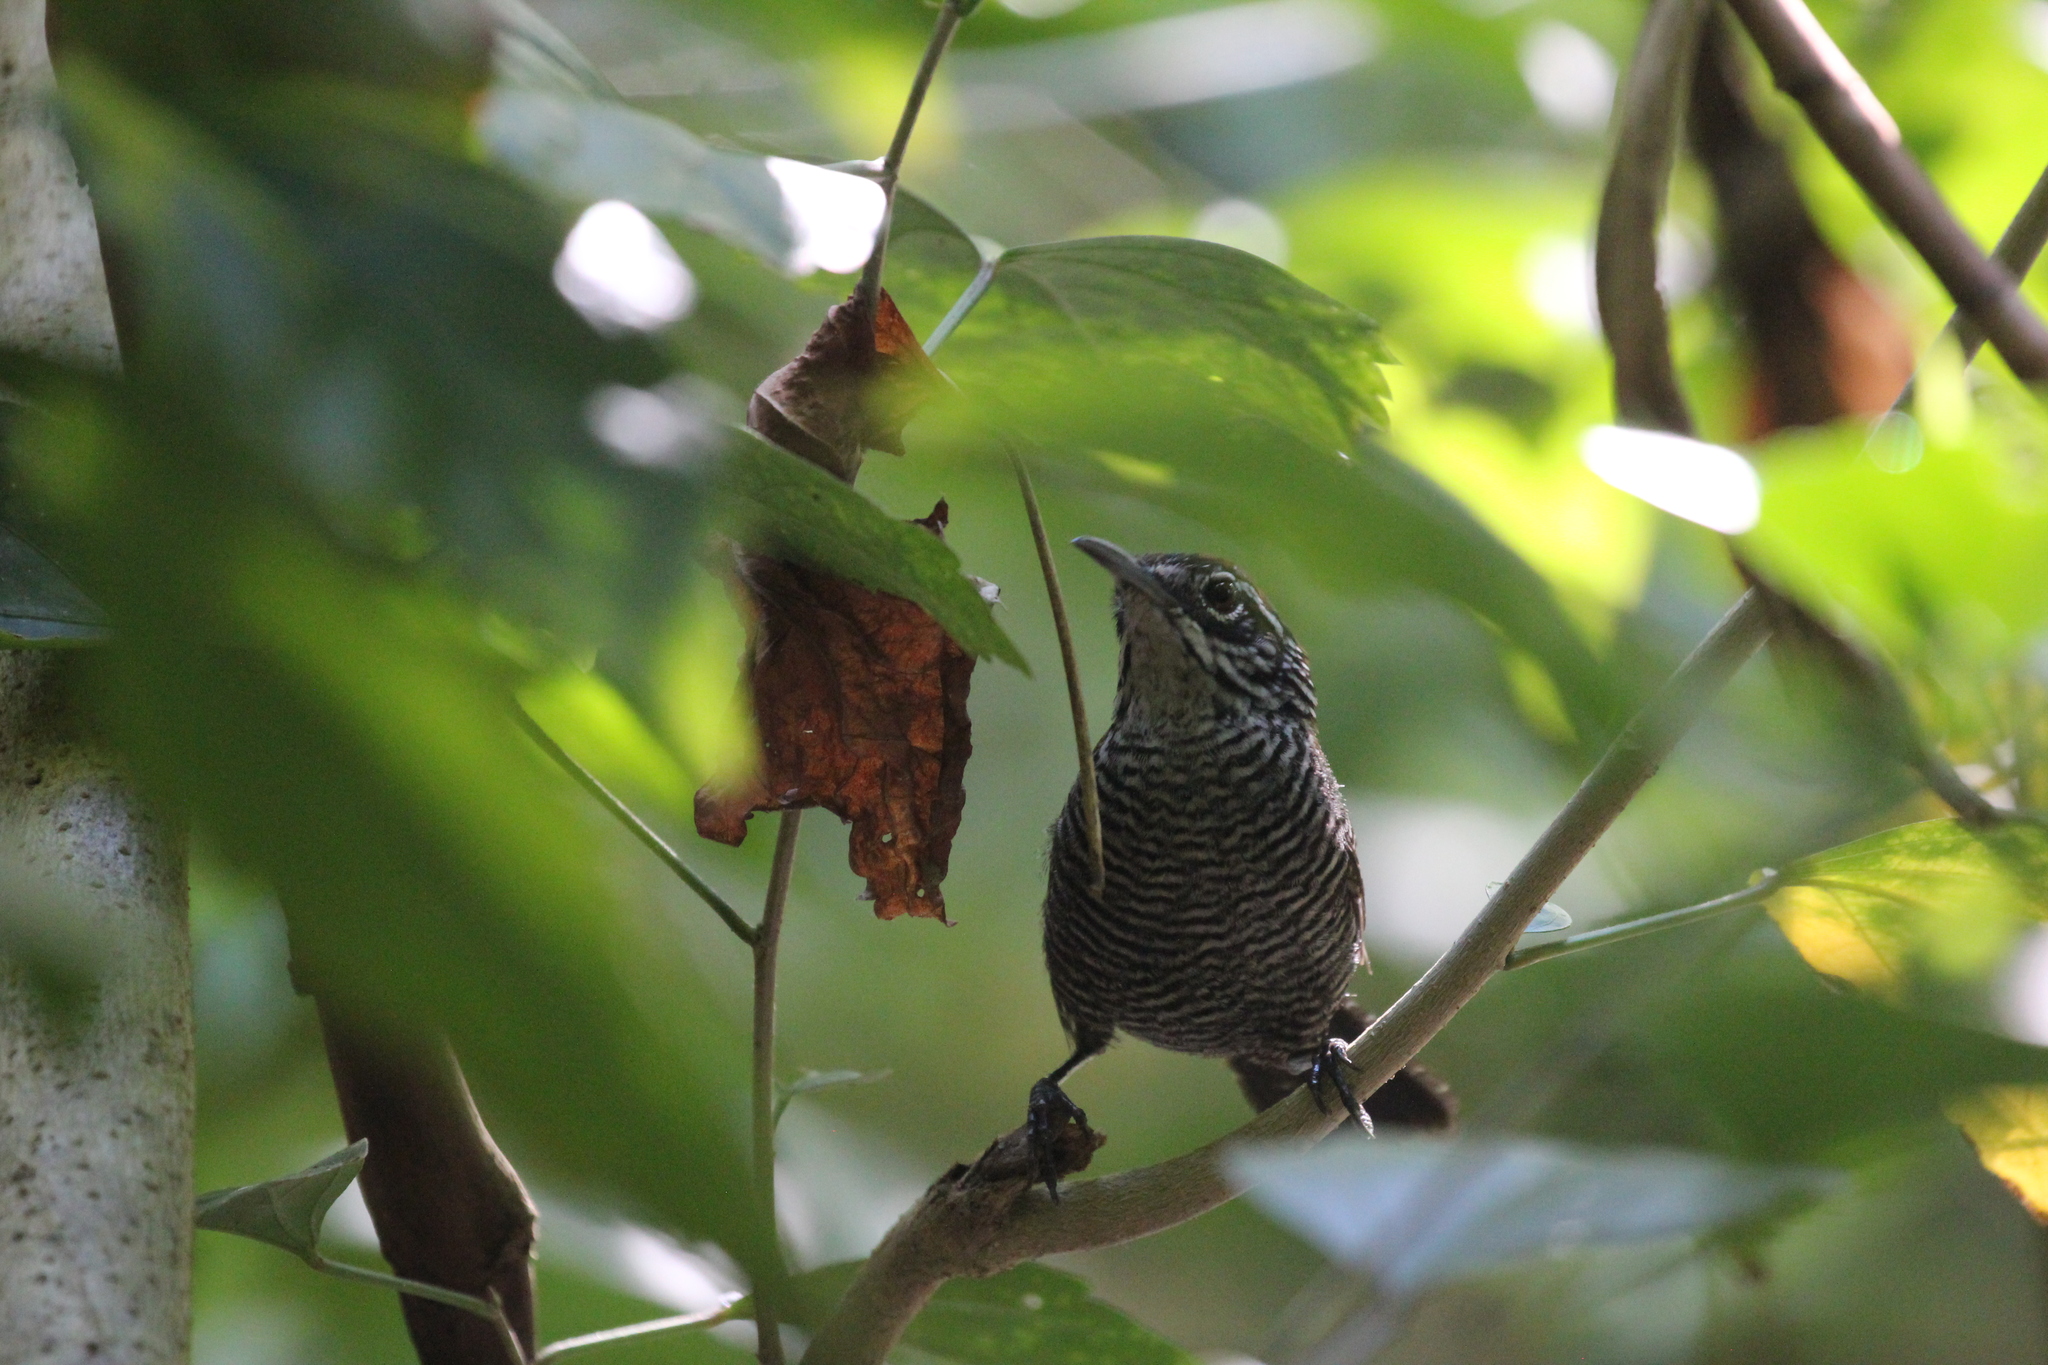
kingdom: Animalia
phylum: Chordata
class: Aves
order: Passeriformes
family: Troglodytidae
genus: Cantorchilus
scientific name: Cantorchilus semibadius
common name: Riverside wren
